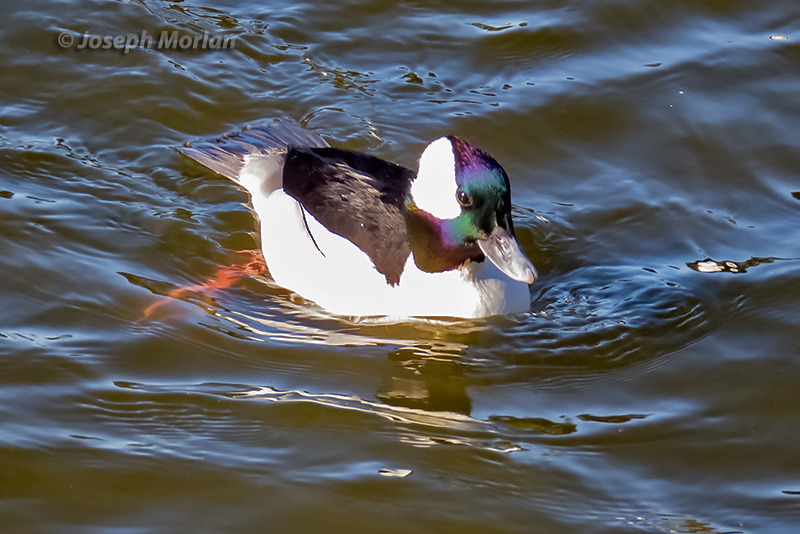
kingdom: Animalia
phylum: Chordata
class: Aves
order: Anseriformes
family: Anatidae
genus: Bucephala
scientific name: Bucephala albeola
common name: Bufflehead
